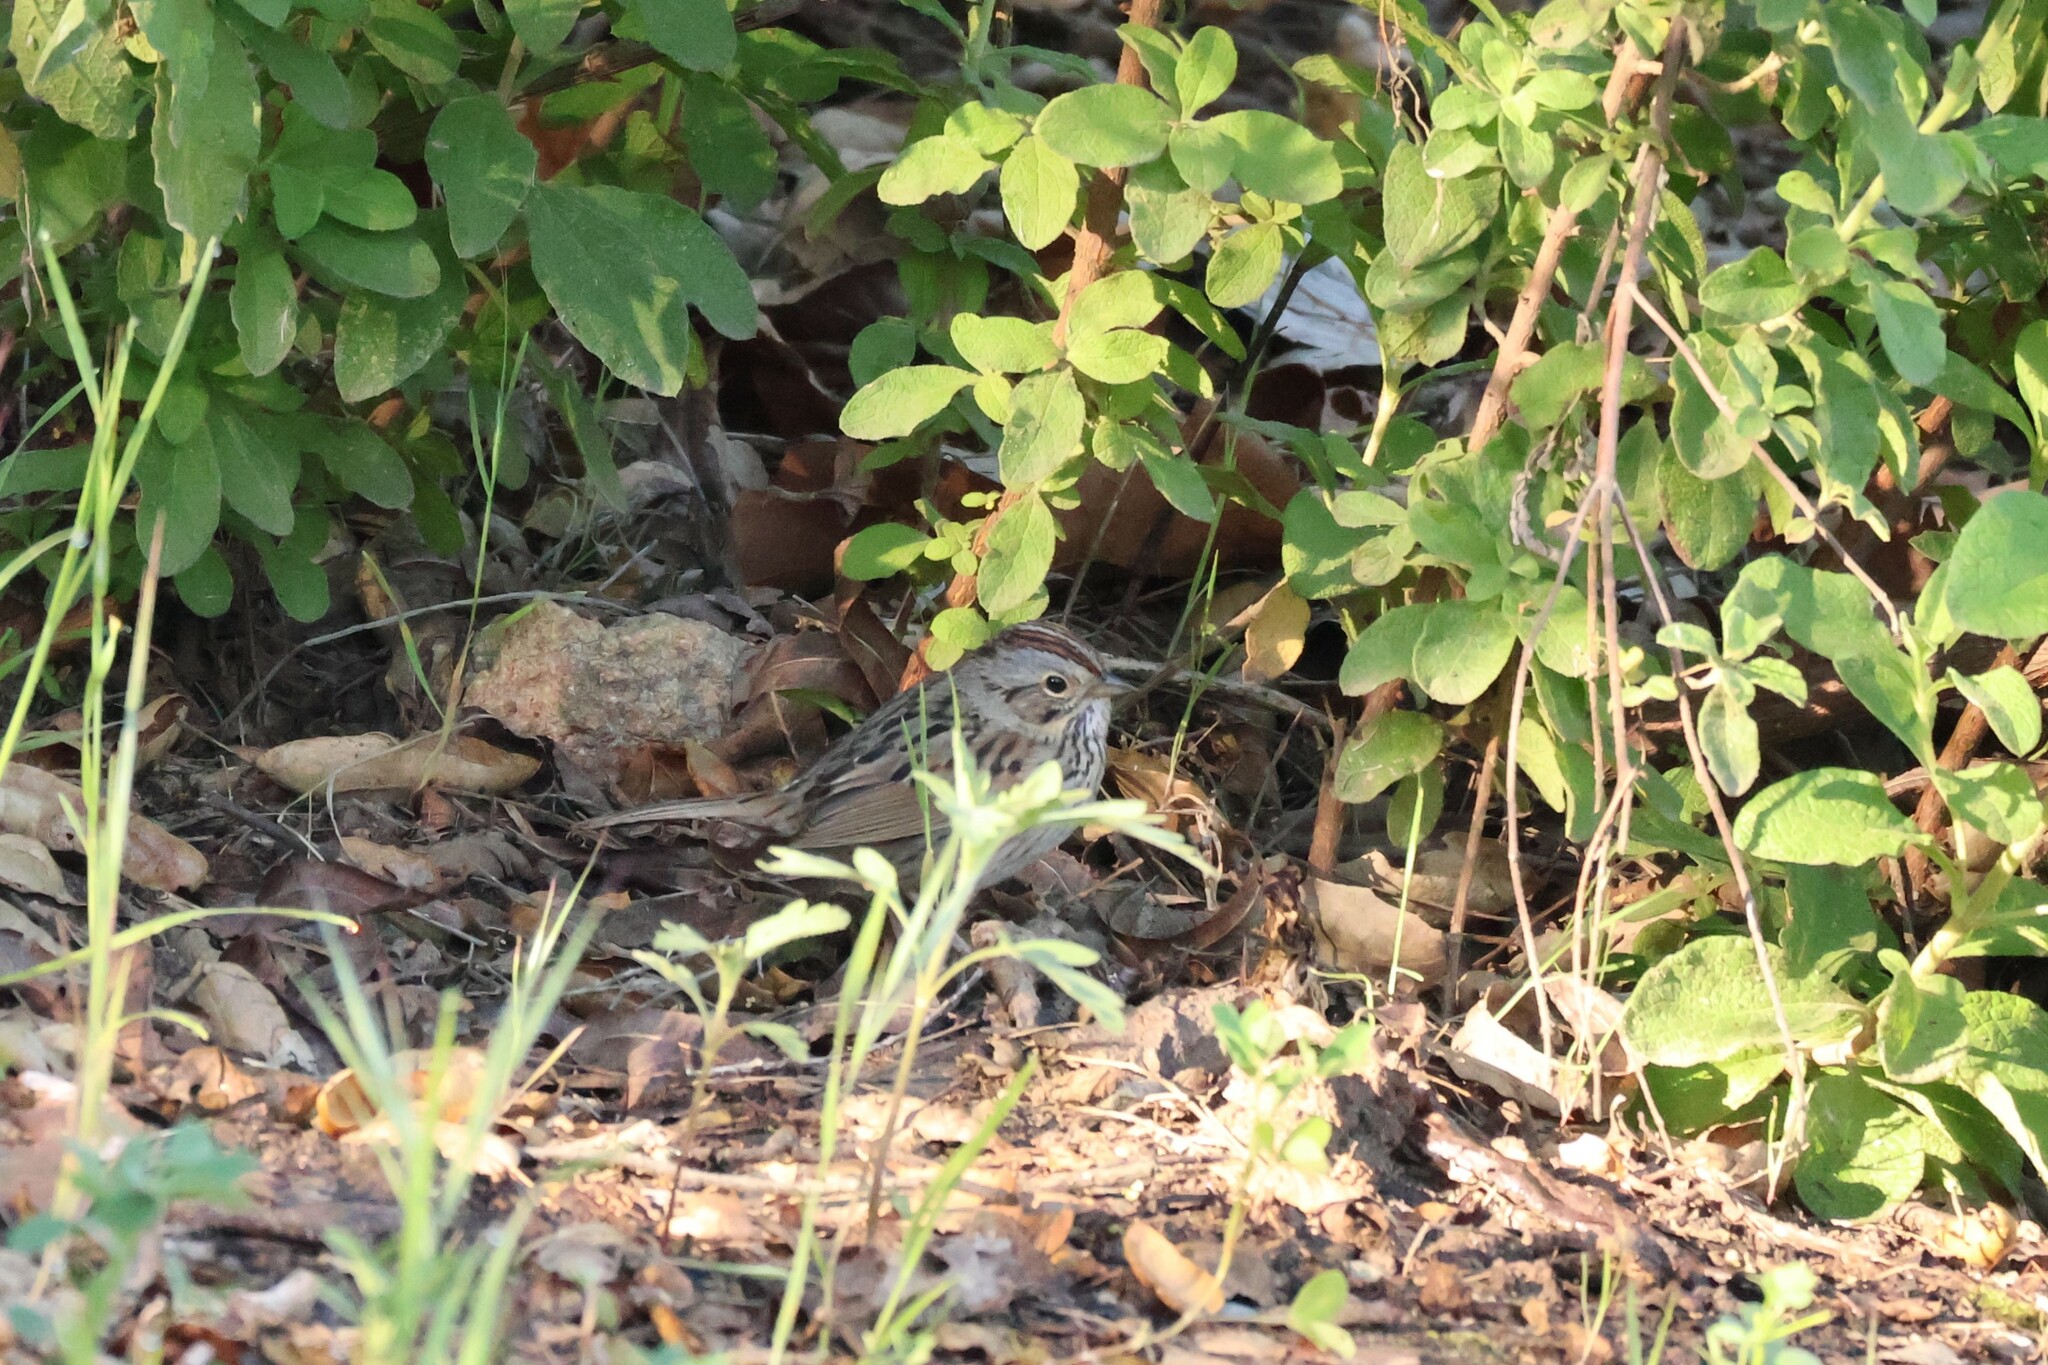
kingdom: Animalia
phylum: Chordata
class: Aves
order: Passeriformes
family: Passerellidae
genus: Melospiza
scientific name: Melospiza lincolnii
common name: Lincoln's sparrow
